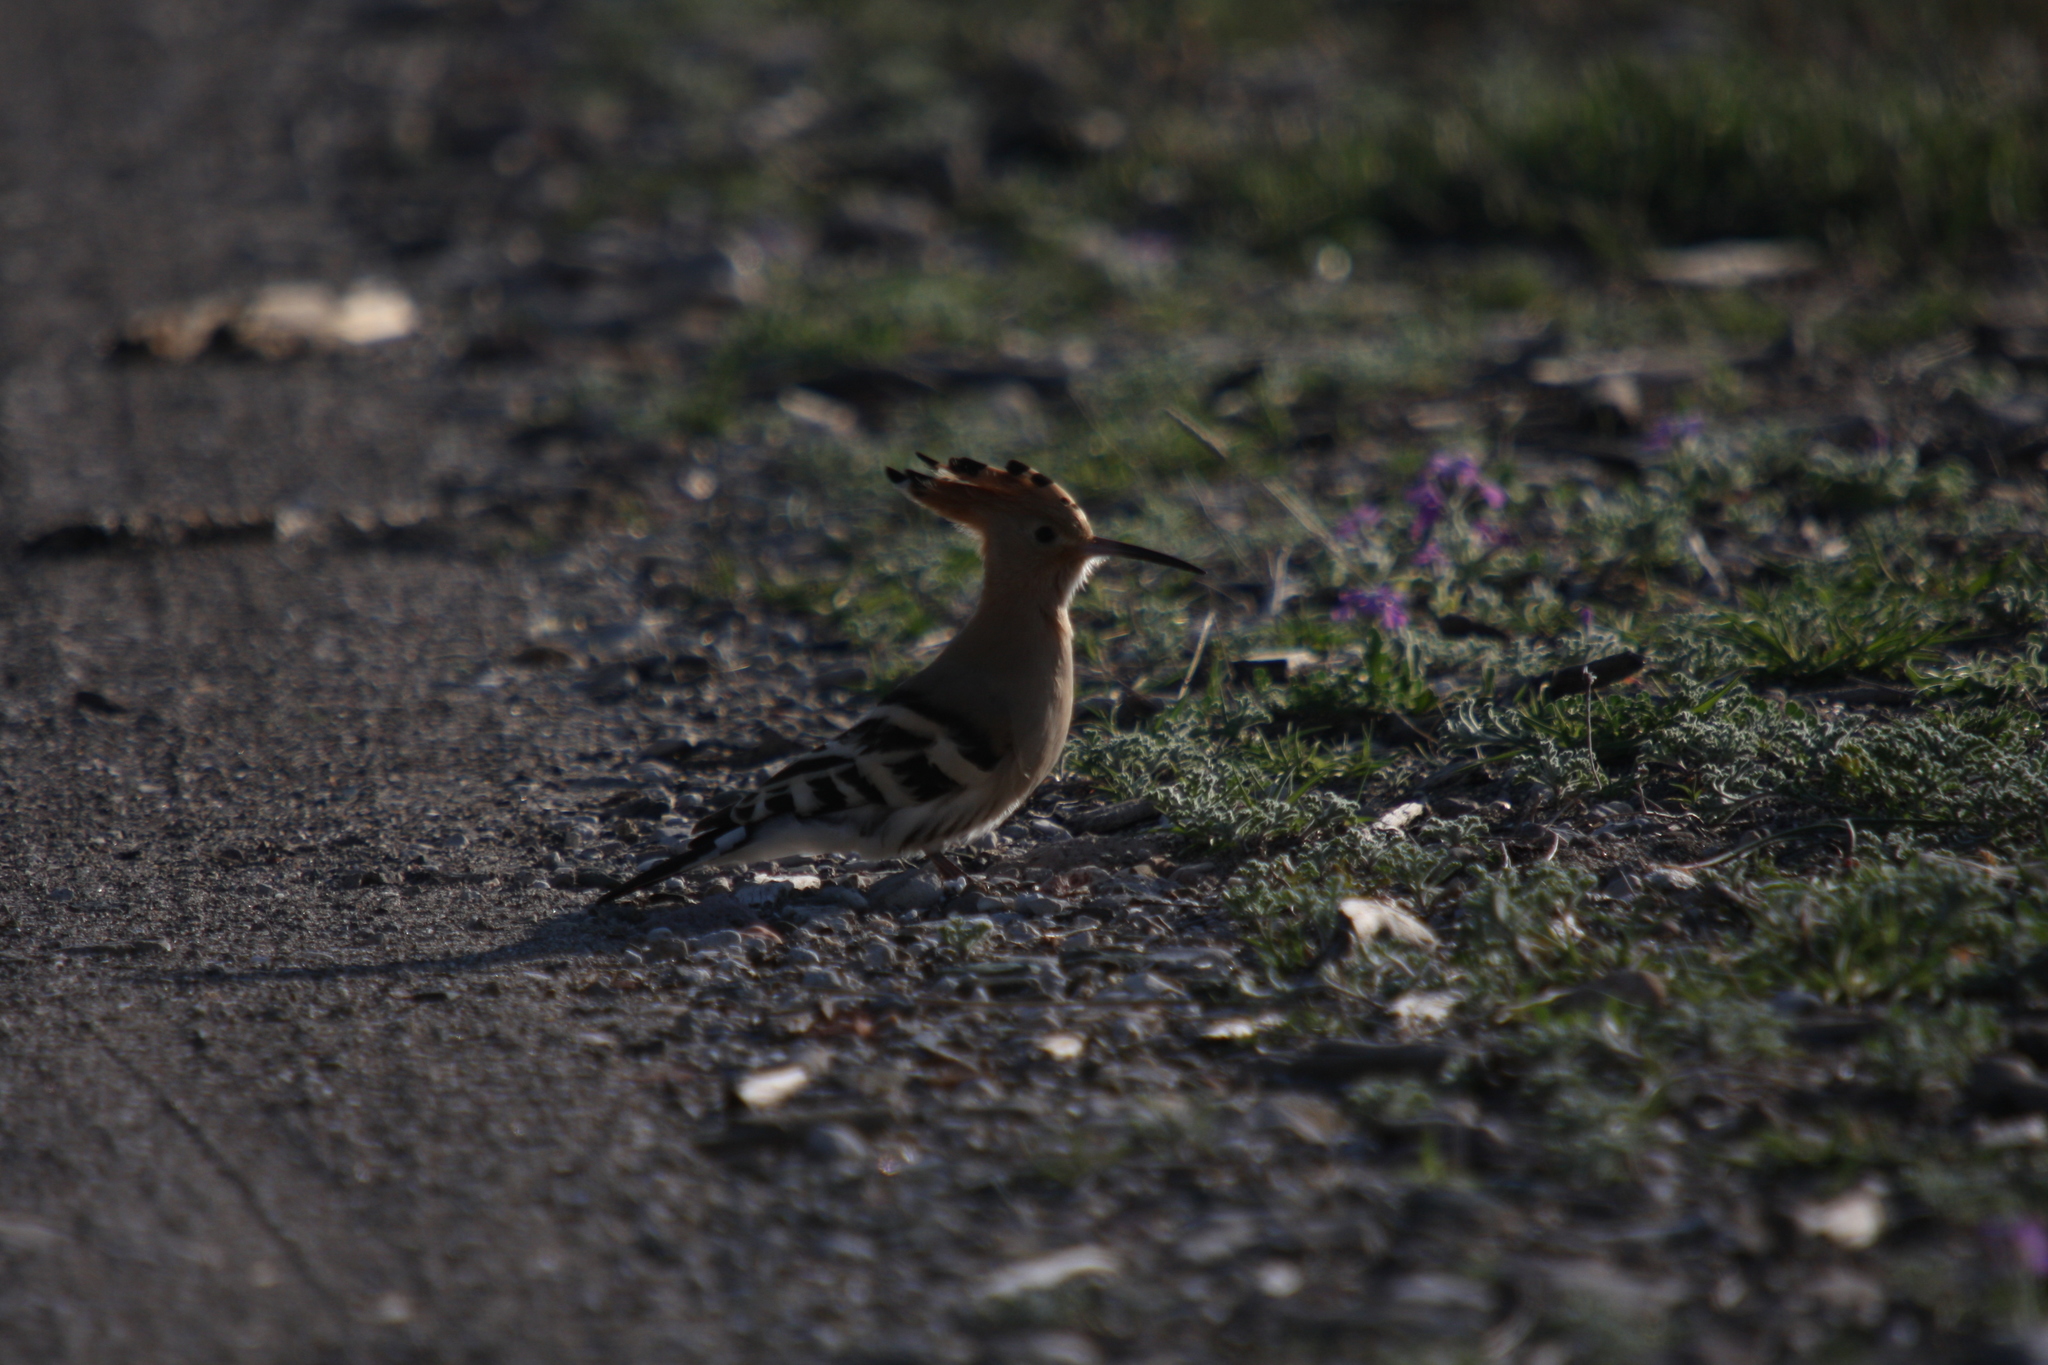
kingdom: Animalia
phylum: Chordata
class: Aves
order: Bucerotiformes
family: Upupidae
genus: Upupa
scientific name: Upupa epops
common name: Eurasian hoopoe
